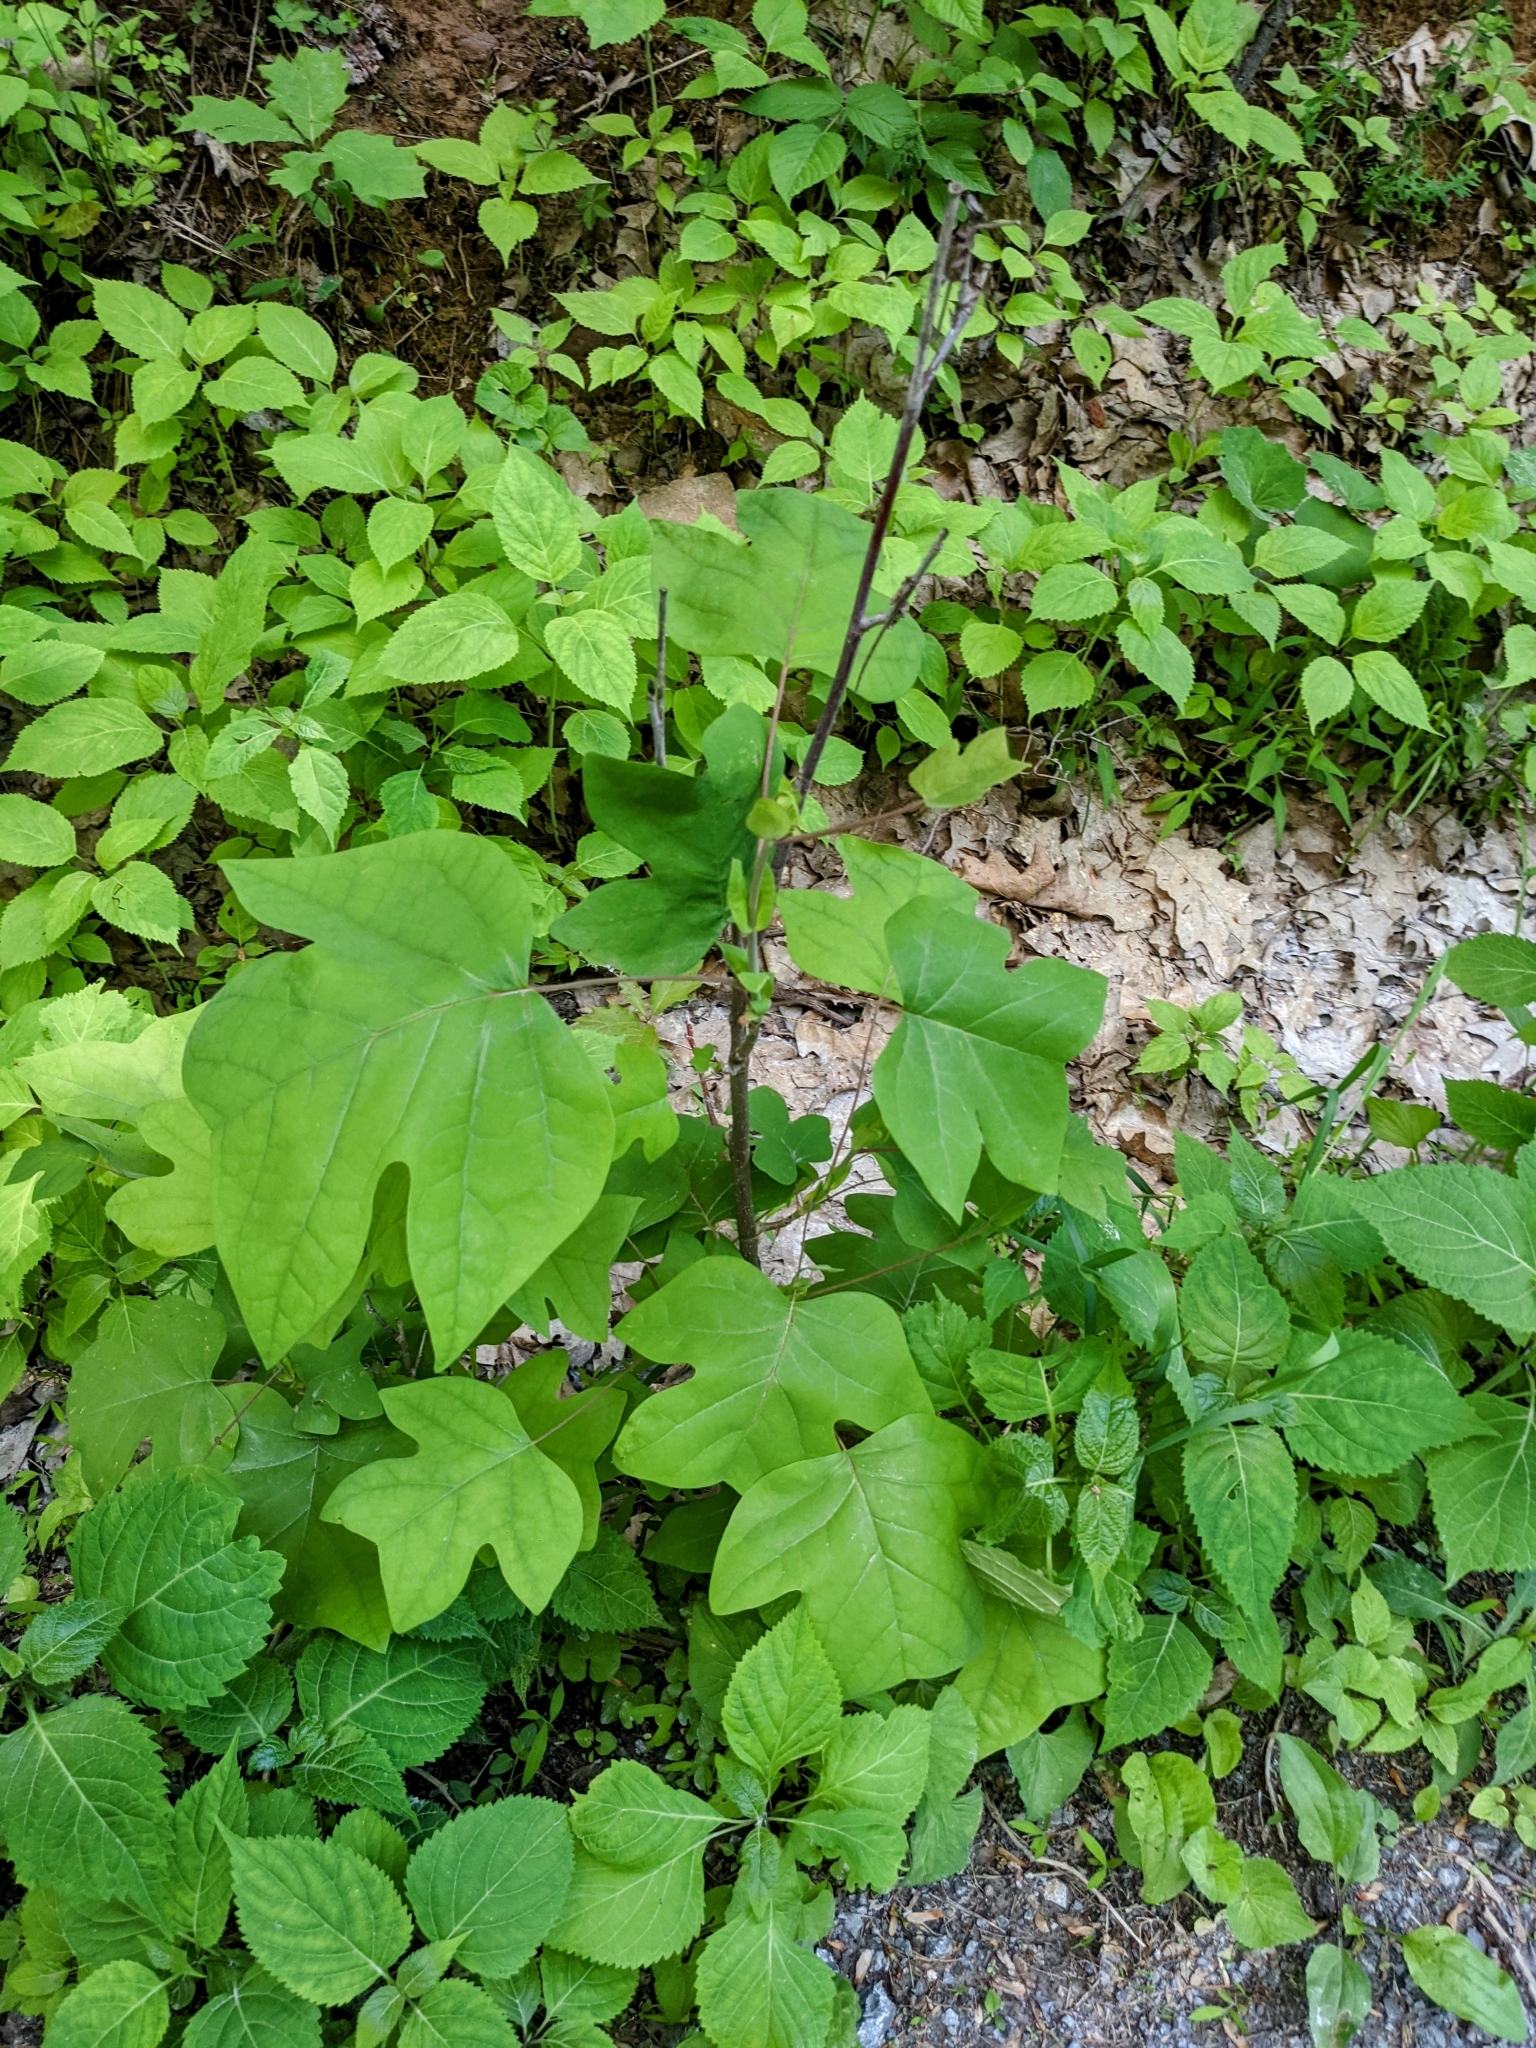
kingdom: Plantae
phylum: Tracheophyta
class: Magnoliopsida
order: Magnoliales
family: Magnoliaceae
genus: Liriodendron
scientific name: Liriodendron tulipifera
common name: Tulip tree
